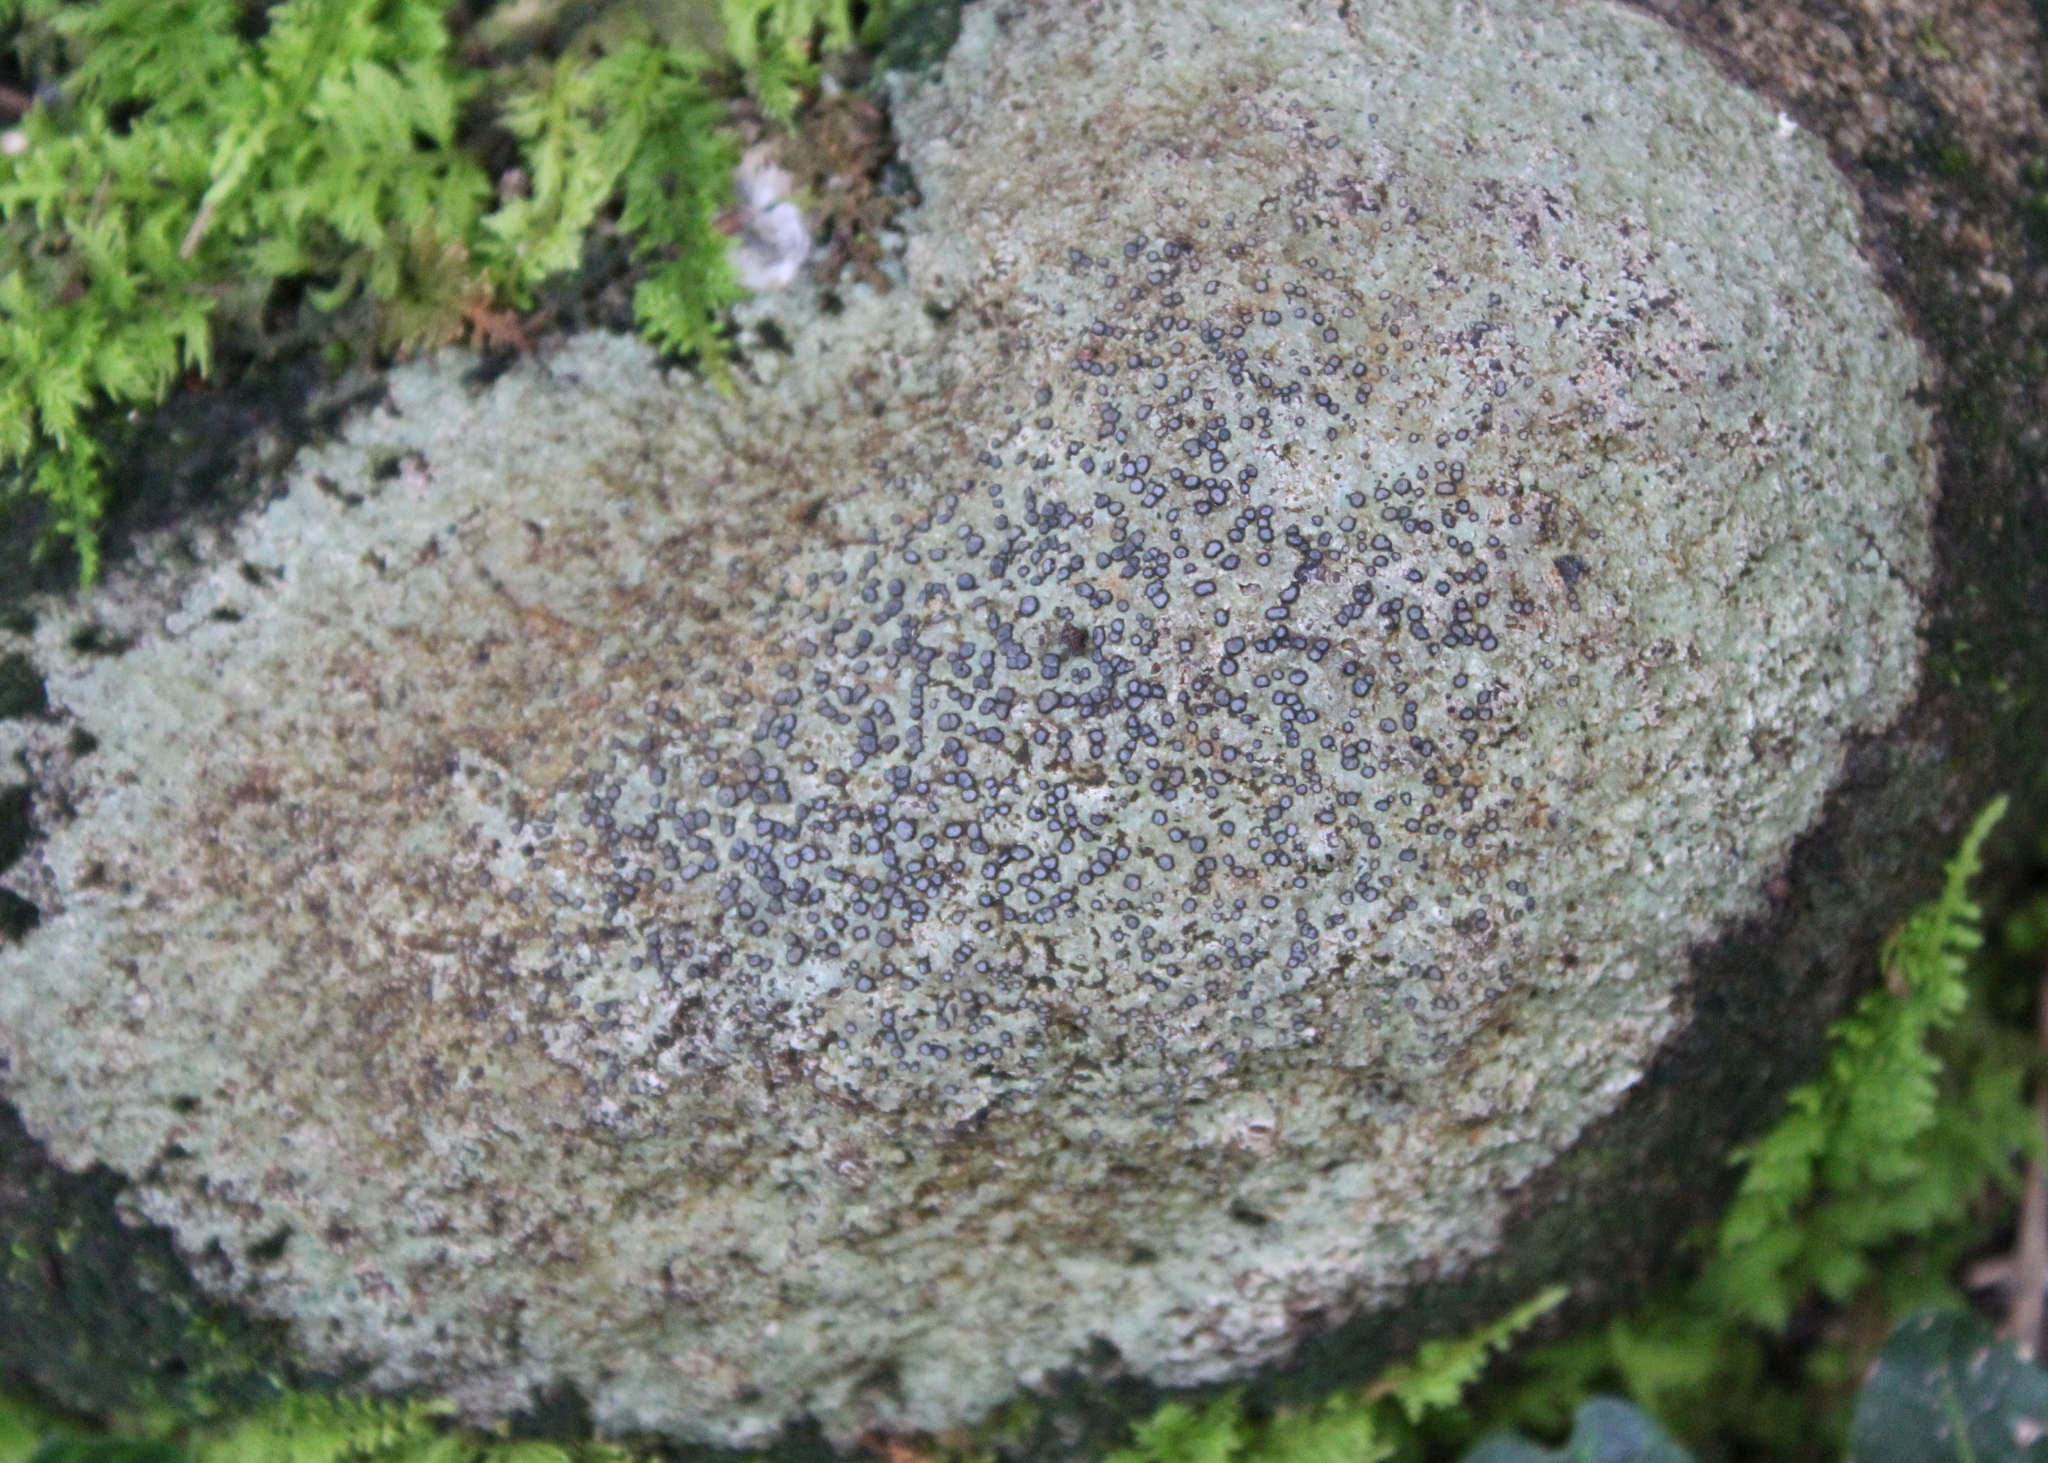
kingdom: Fungi
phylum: Ascomycota
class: Lecanoromycetes
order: Lecideales
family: Lecideaceae
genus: Porpidia
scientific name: Porpidia albocaerulescens
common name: Smokey-eyed boulder lichen
